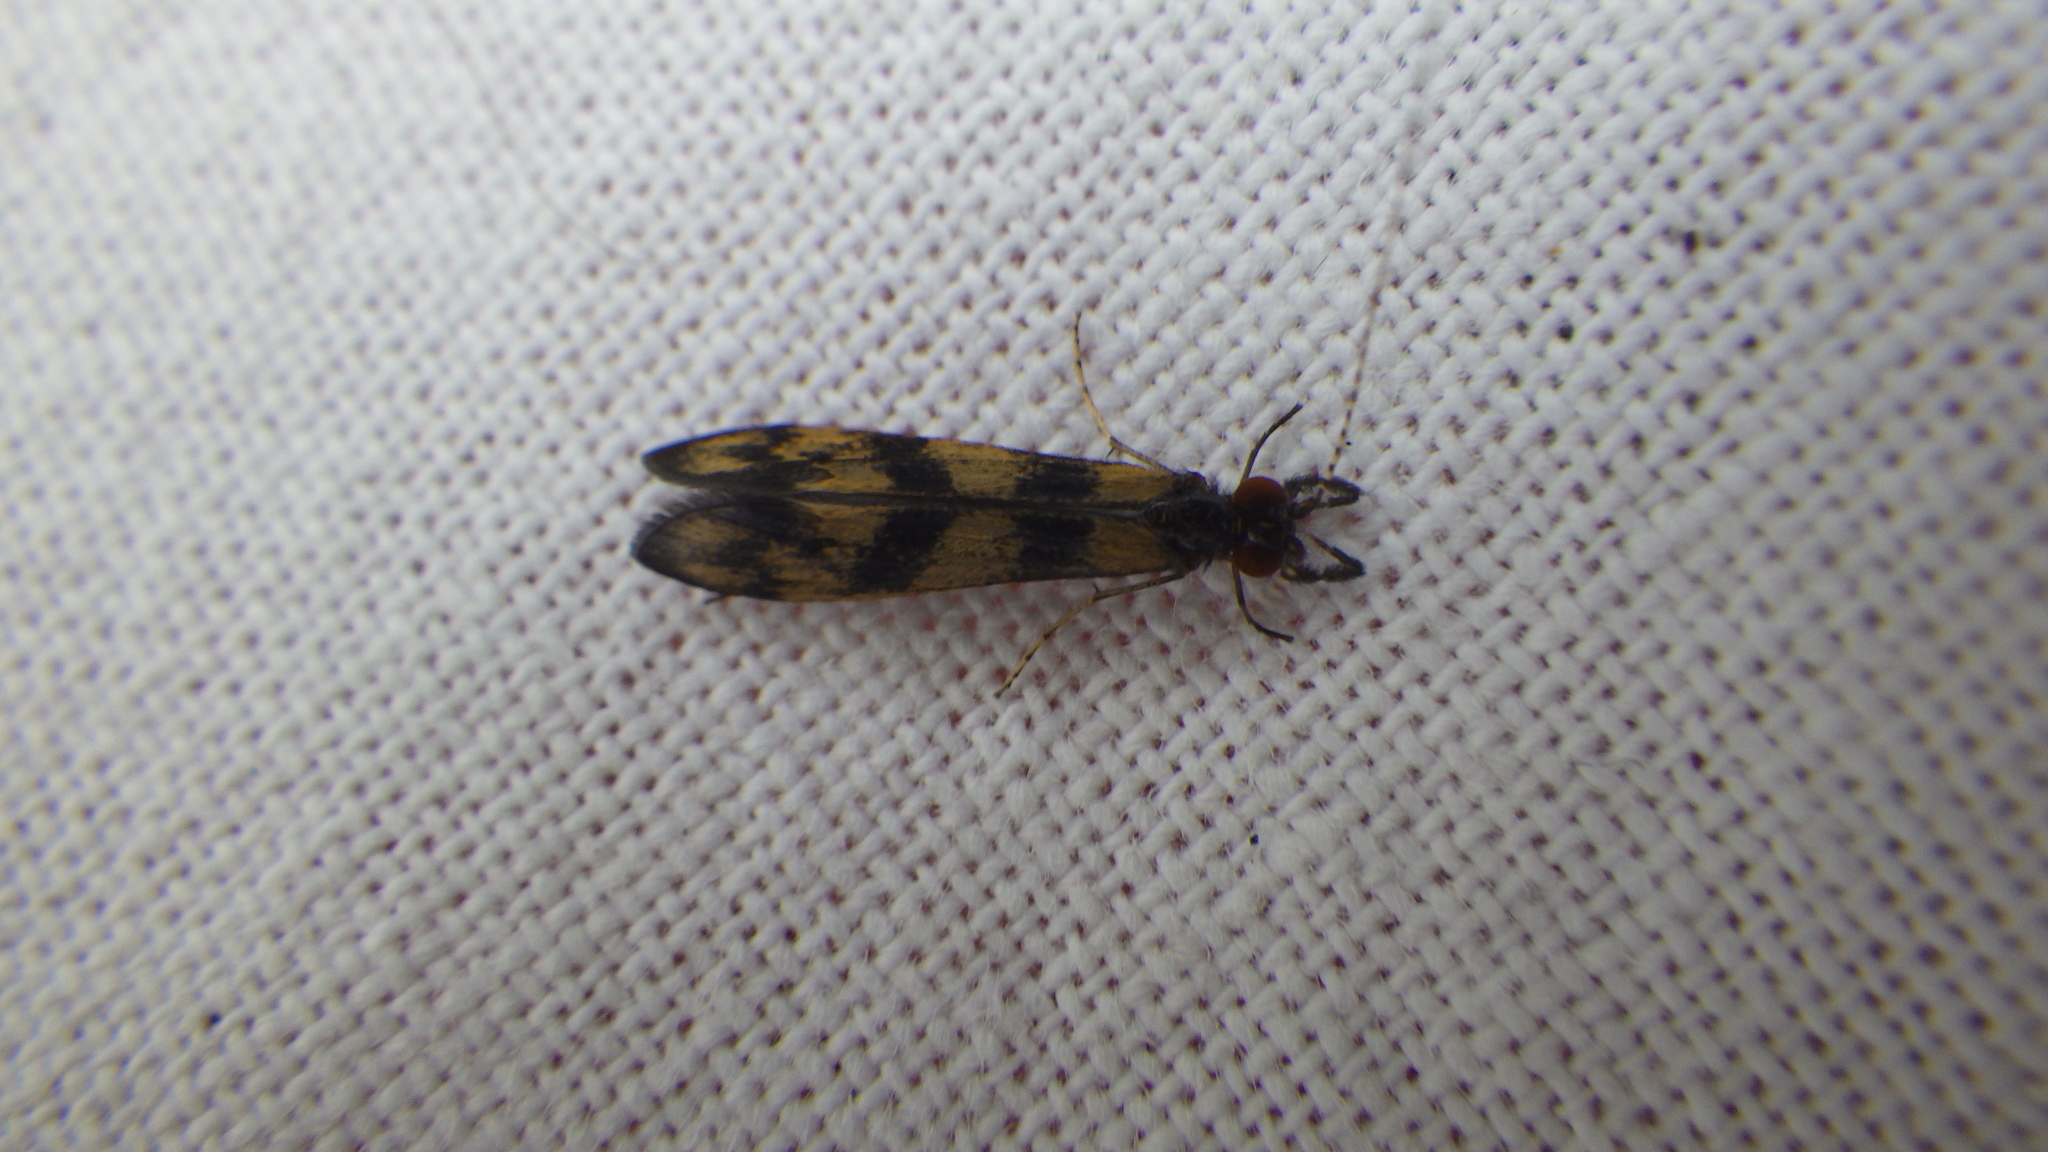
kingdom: Animalia
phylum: Arthropoda
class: Insecta
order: Trichoptera
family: Leptoceridae
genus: Mystacides
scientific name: Mystacides longicornis
